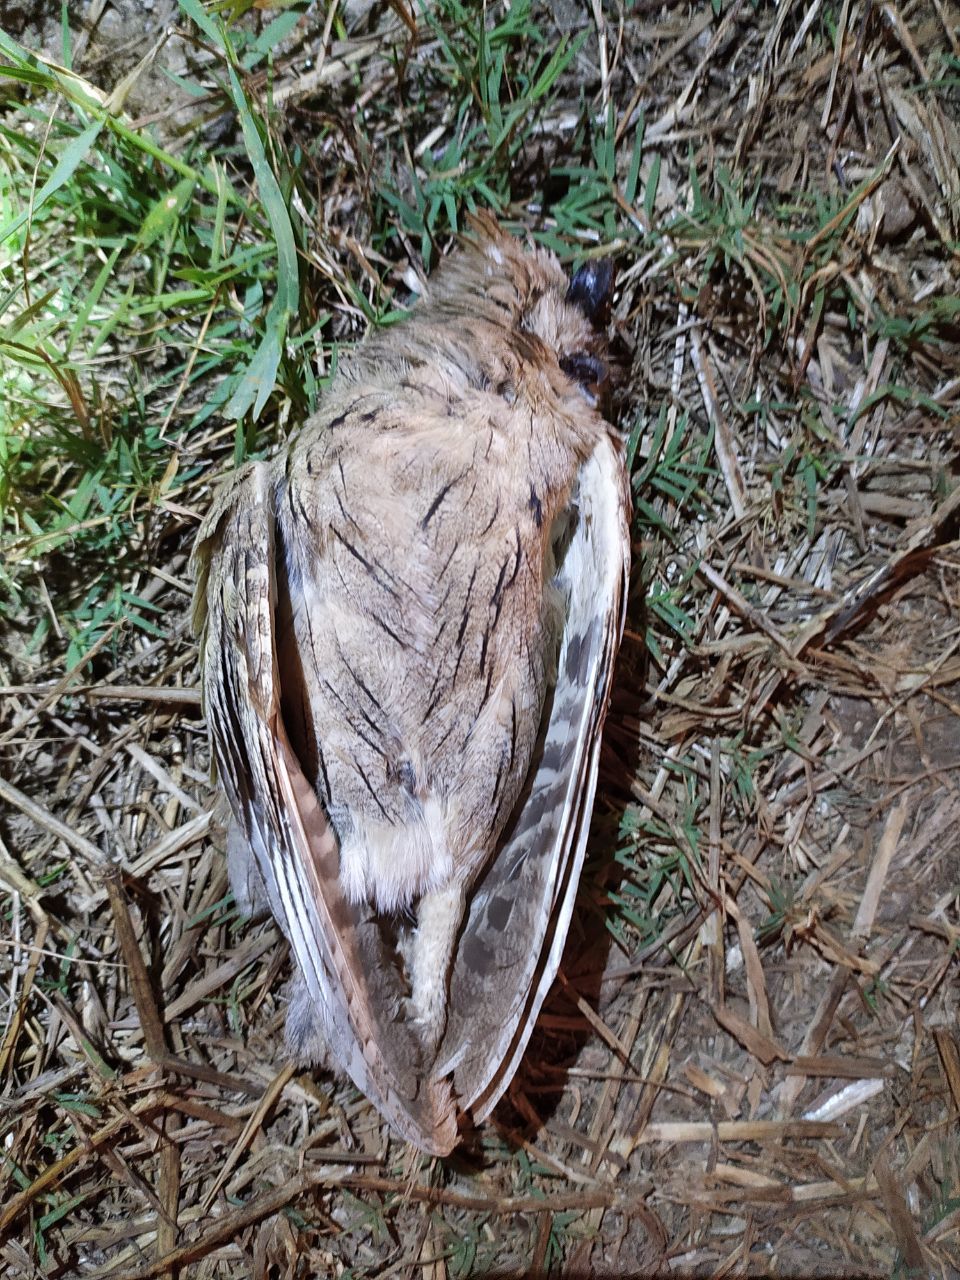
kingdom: Animalia
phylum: Chordata
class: Aves
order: Strigiformes
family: Strigidae
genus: Otus
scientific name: Otus brucei
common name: Pallid scops owl
